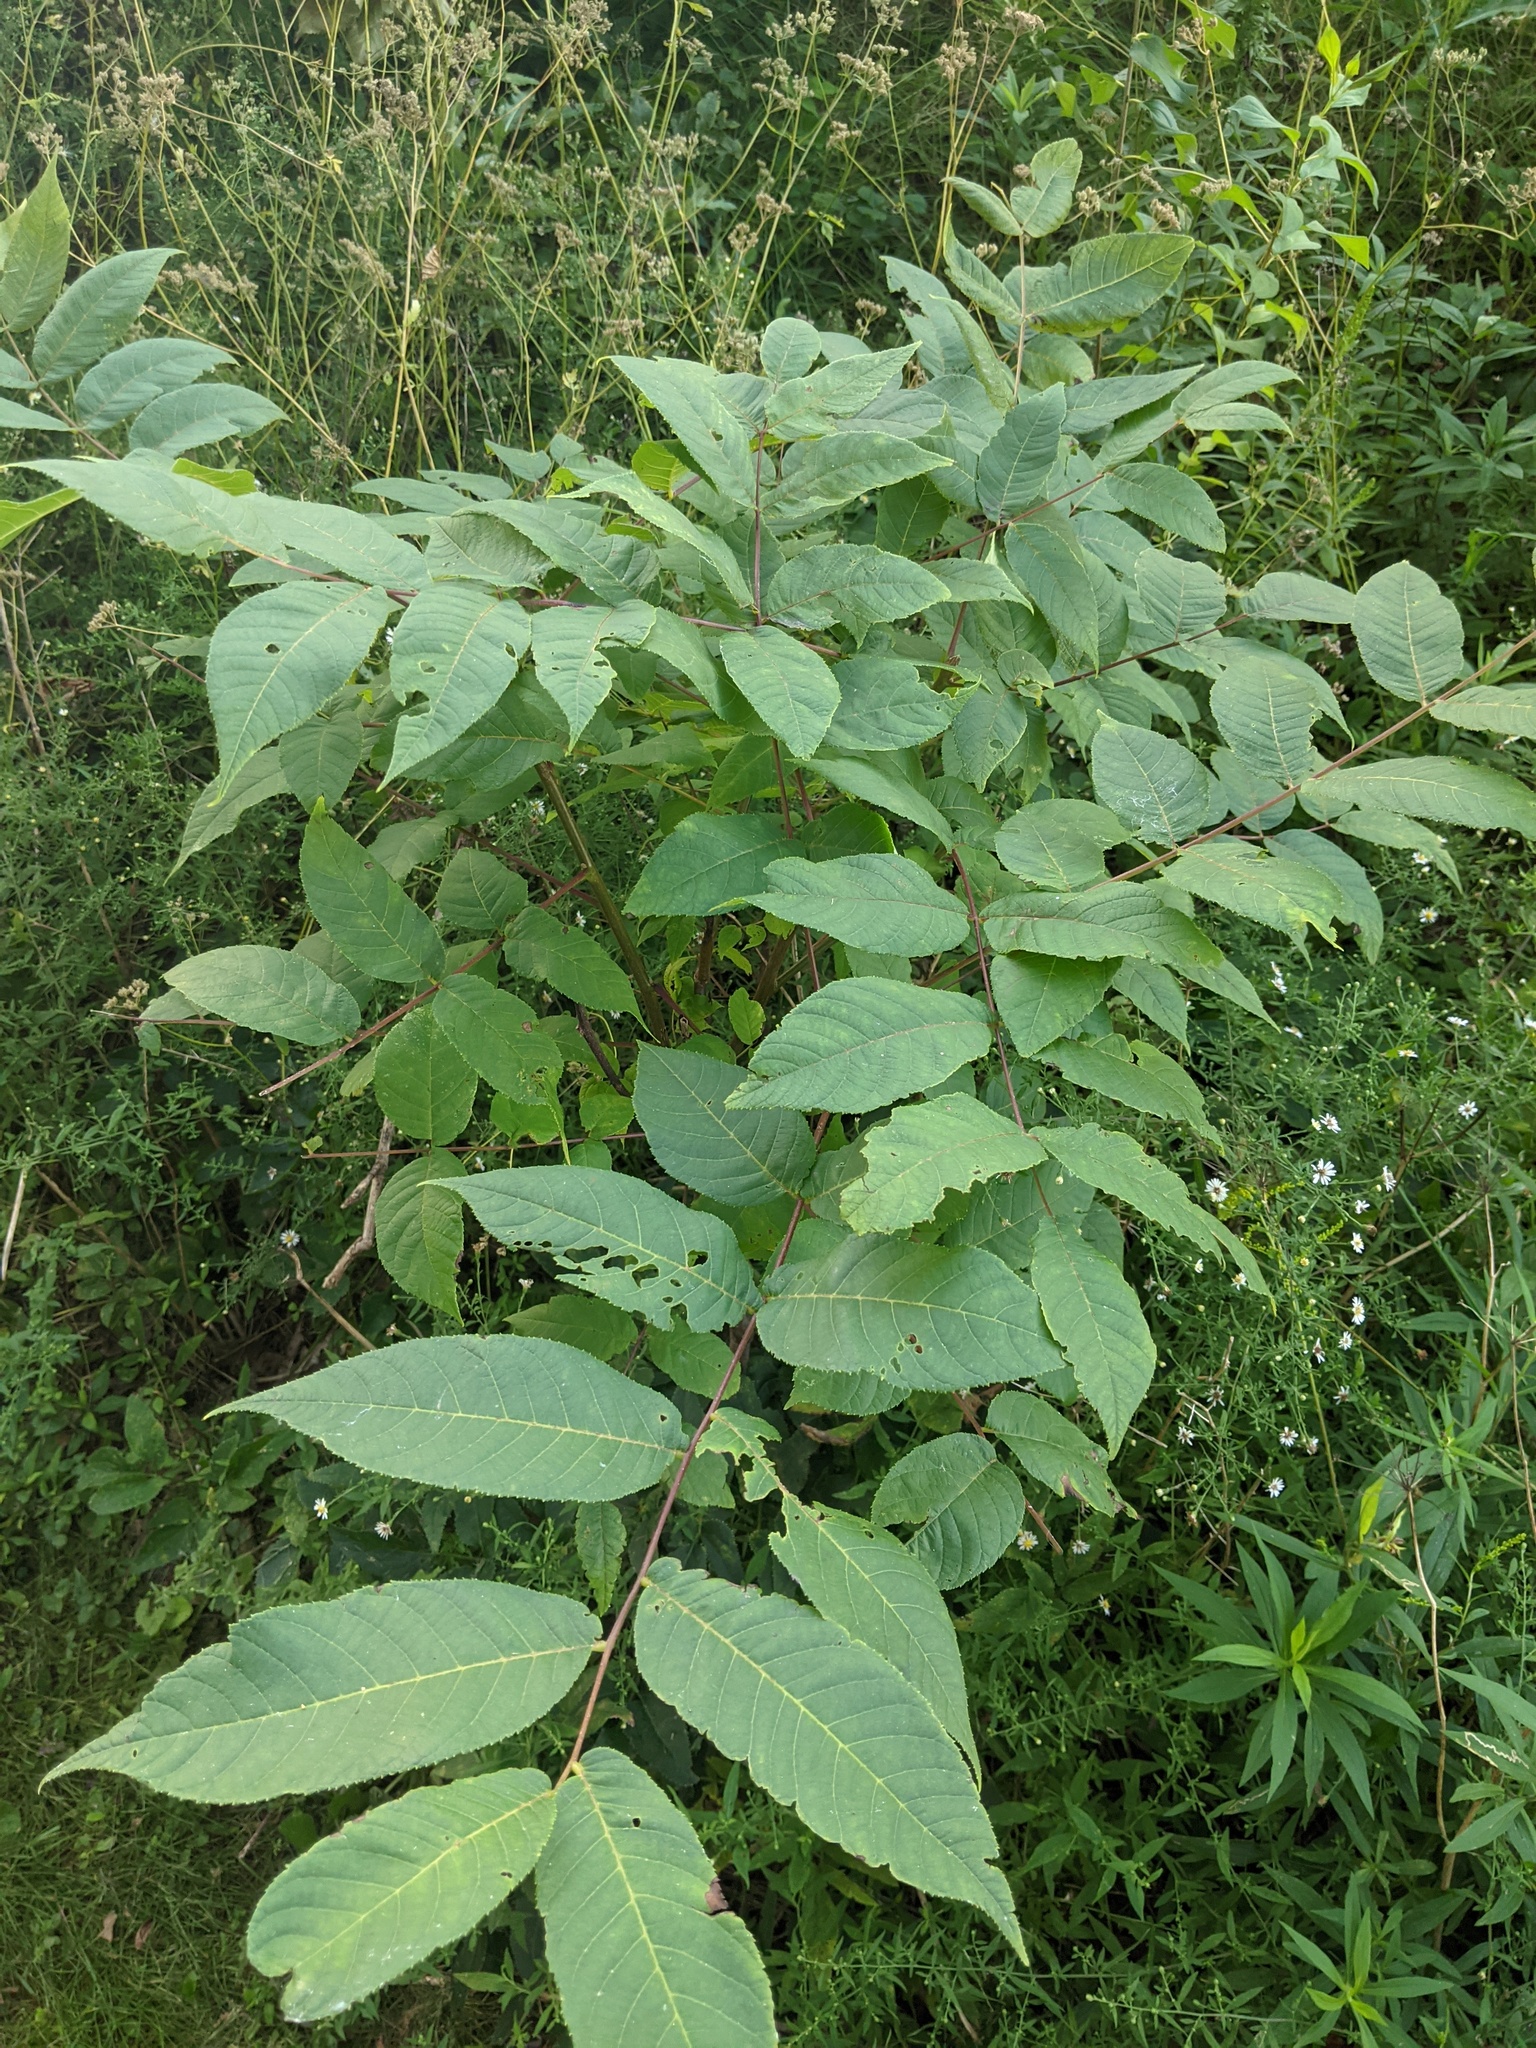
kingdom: Plantae
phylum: Tracheophyta
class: Magnoliopsida
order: Fagales
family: Juglandaceae
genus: Juglans
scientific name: Juglans nigra
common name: Black walnut
